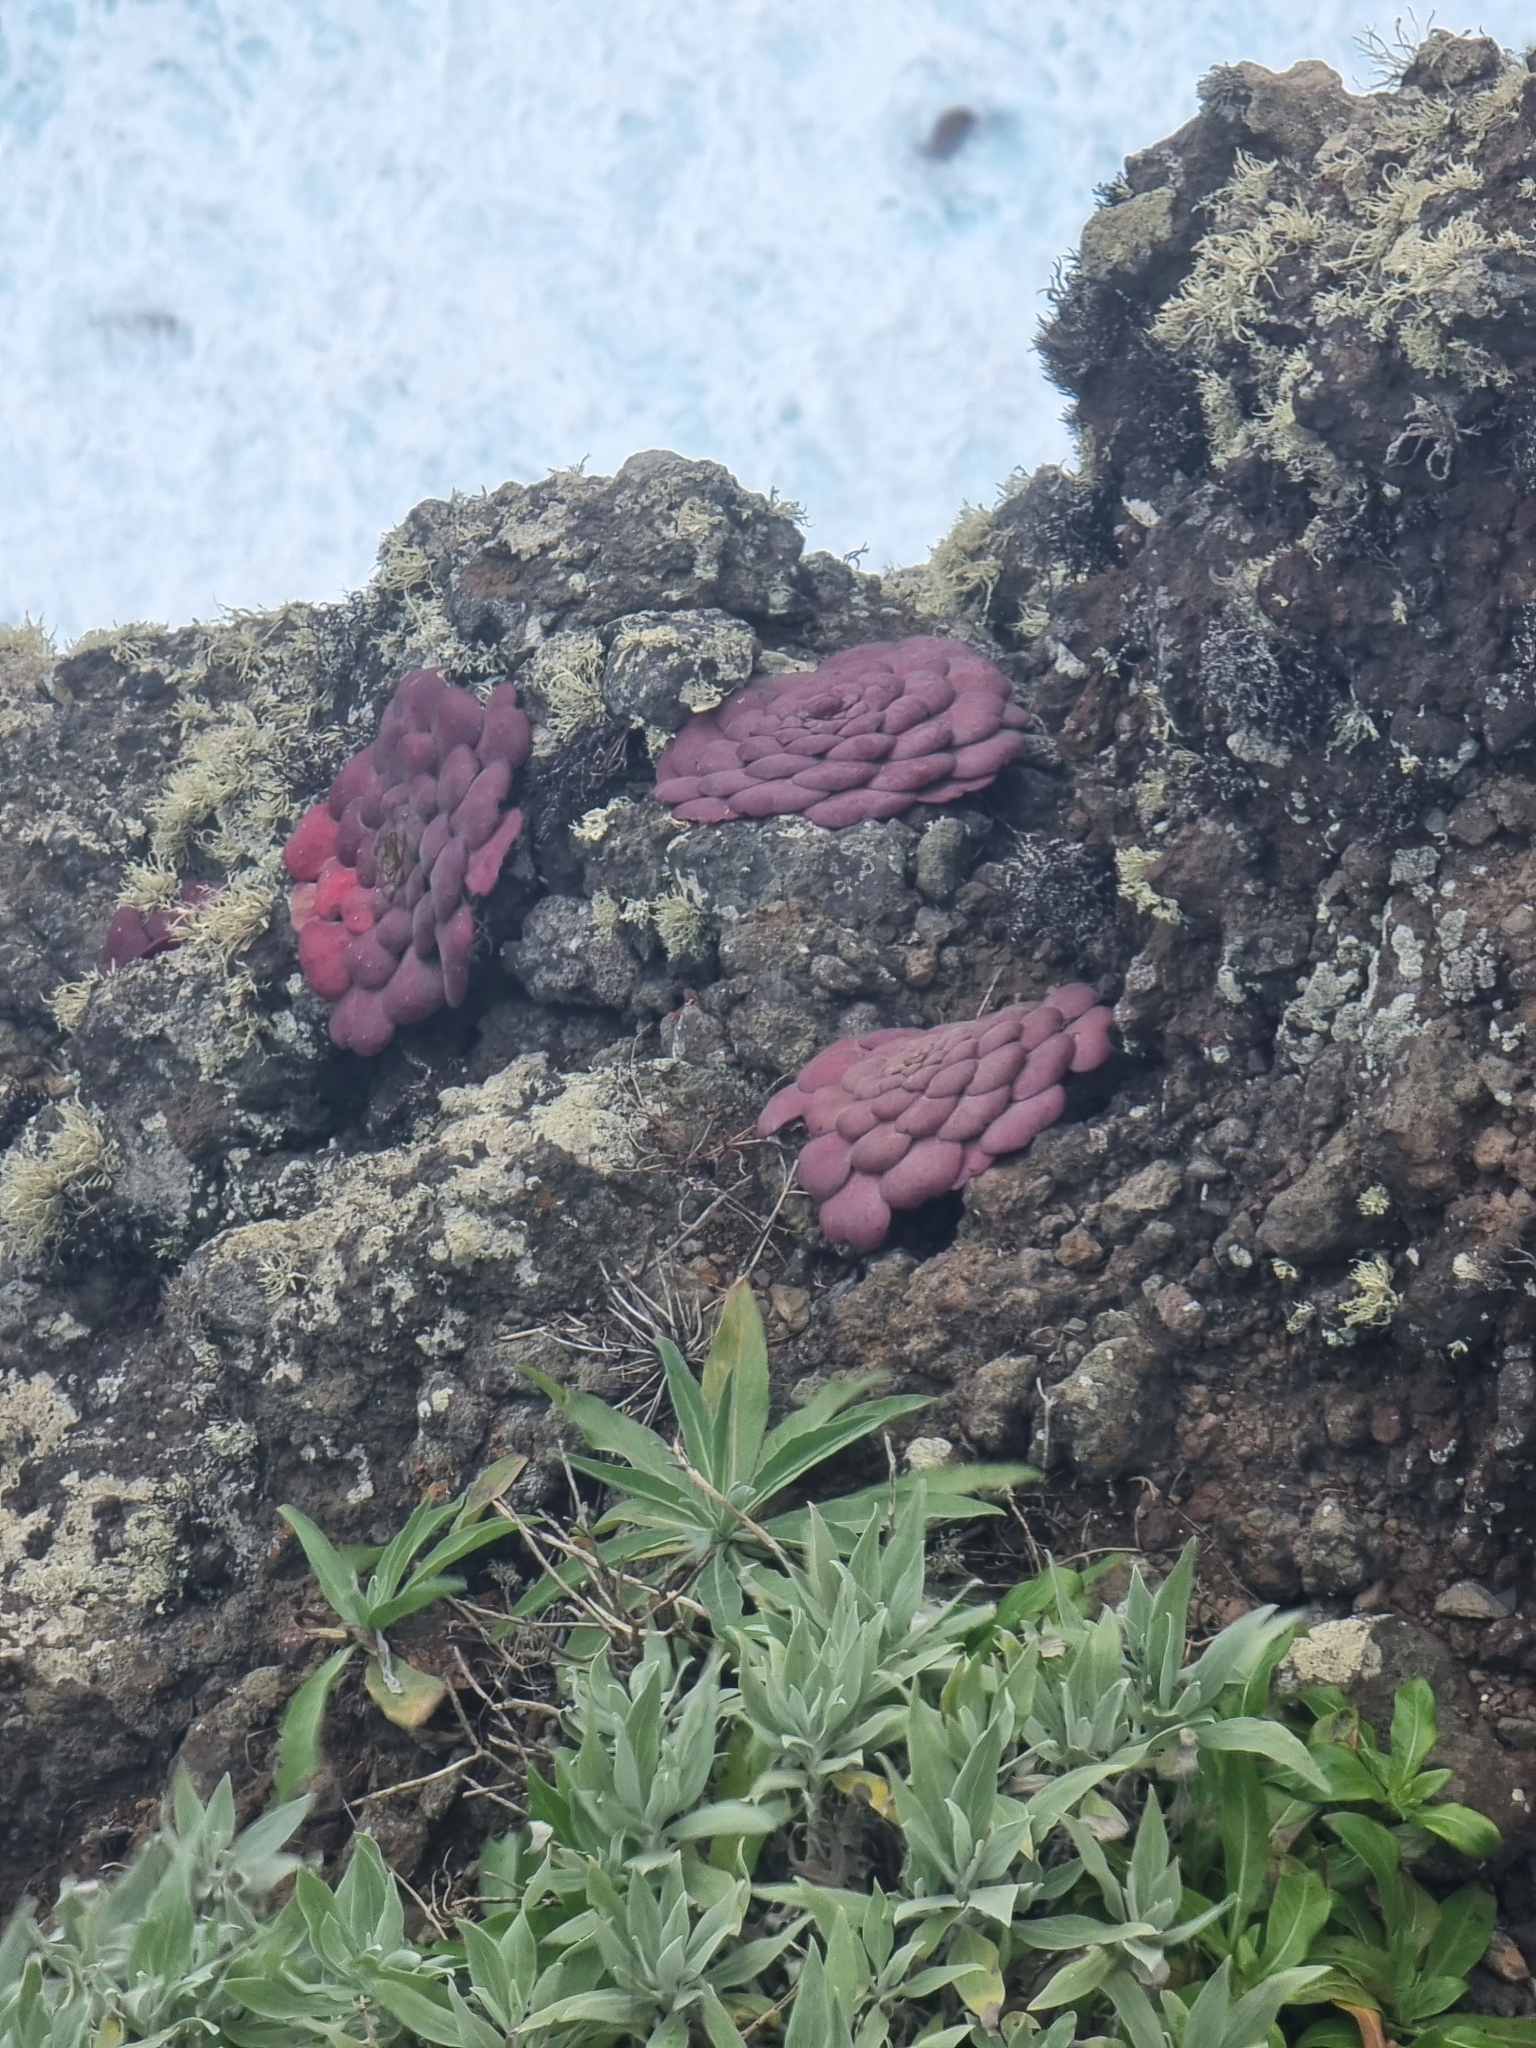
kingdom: Plantae
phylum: Tracheophyta
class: Magnoliopsida
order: Saxifragales
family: Crassulaceae
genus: Aeonium
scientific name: Aeonium glandulosum
